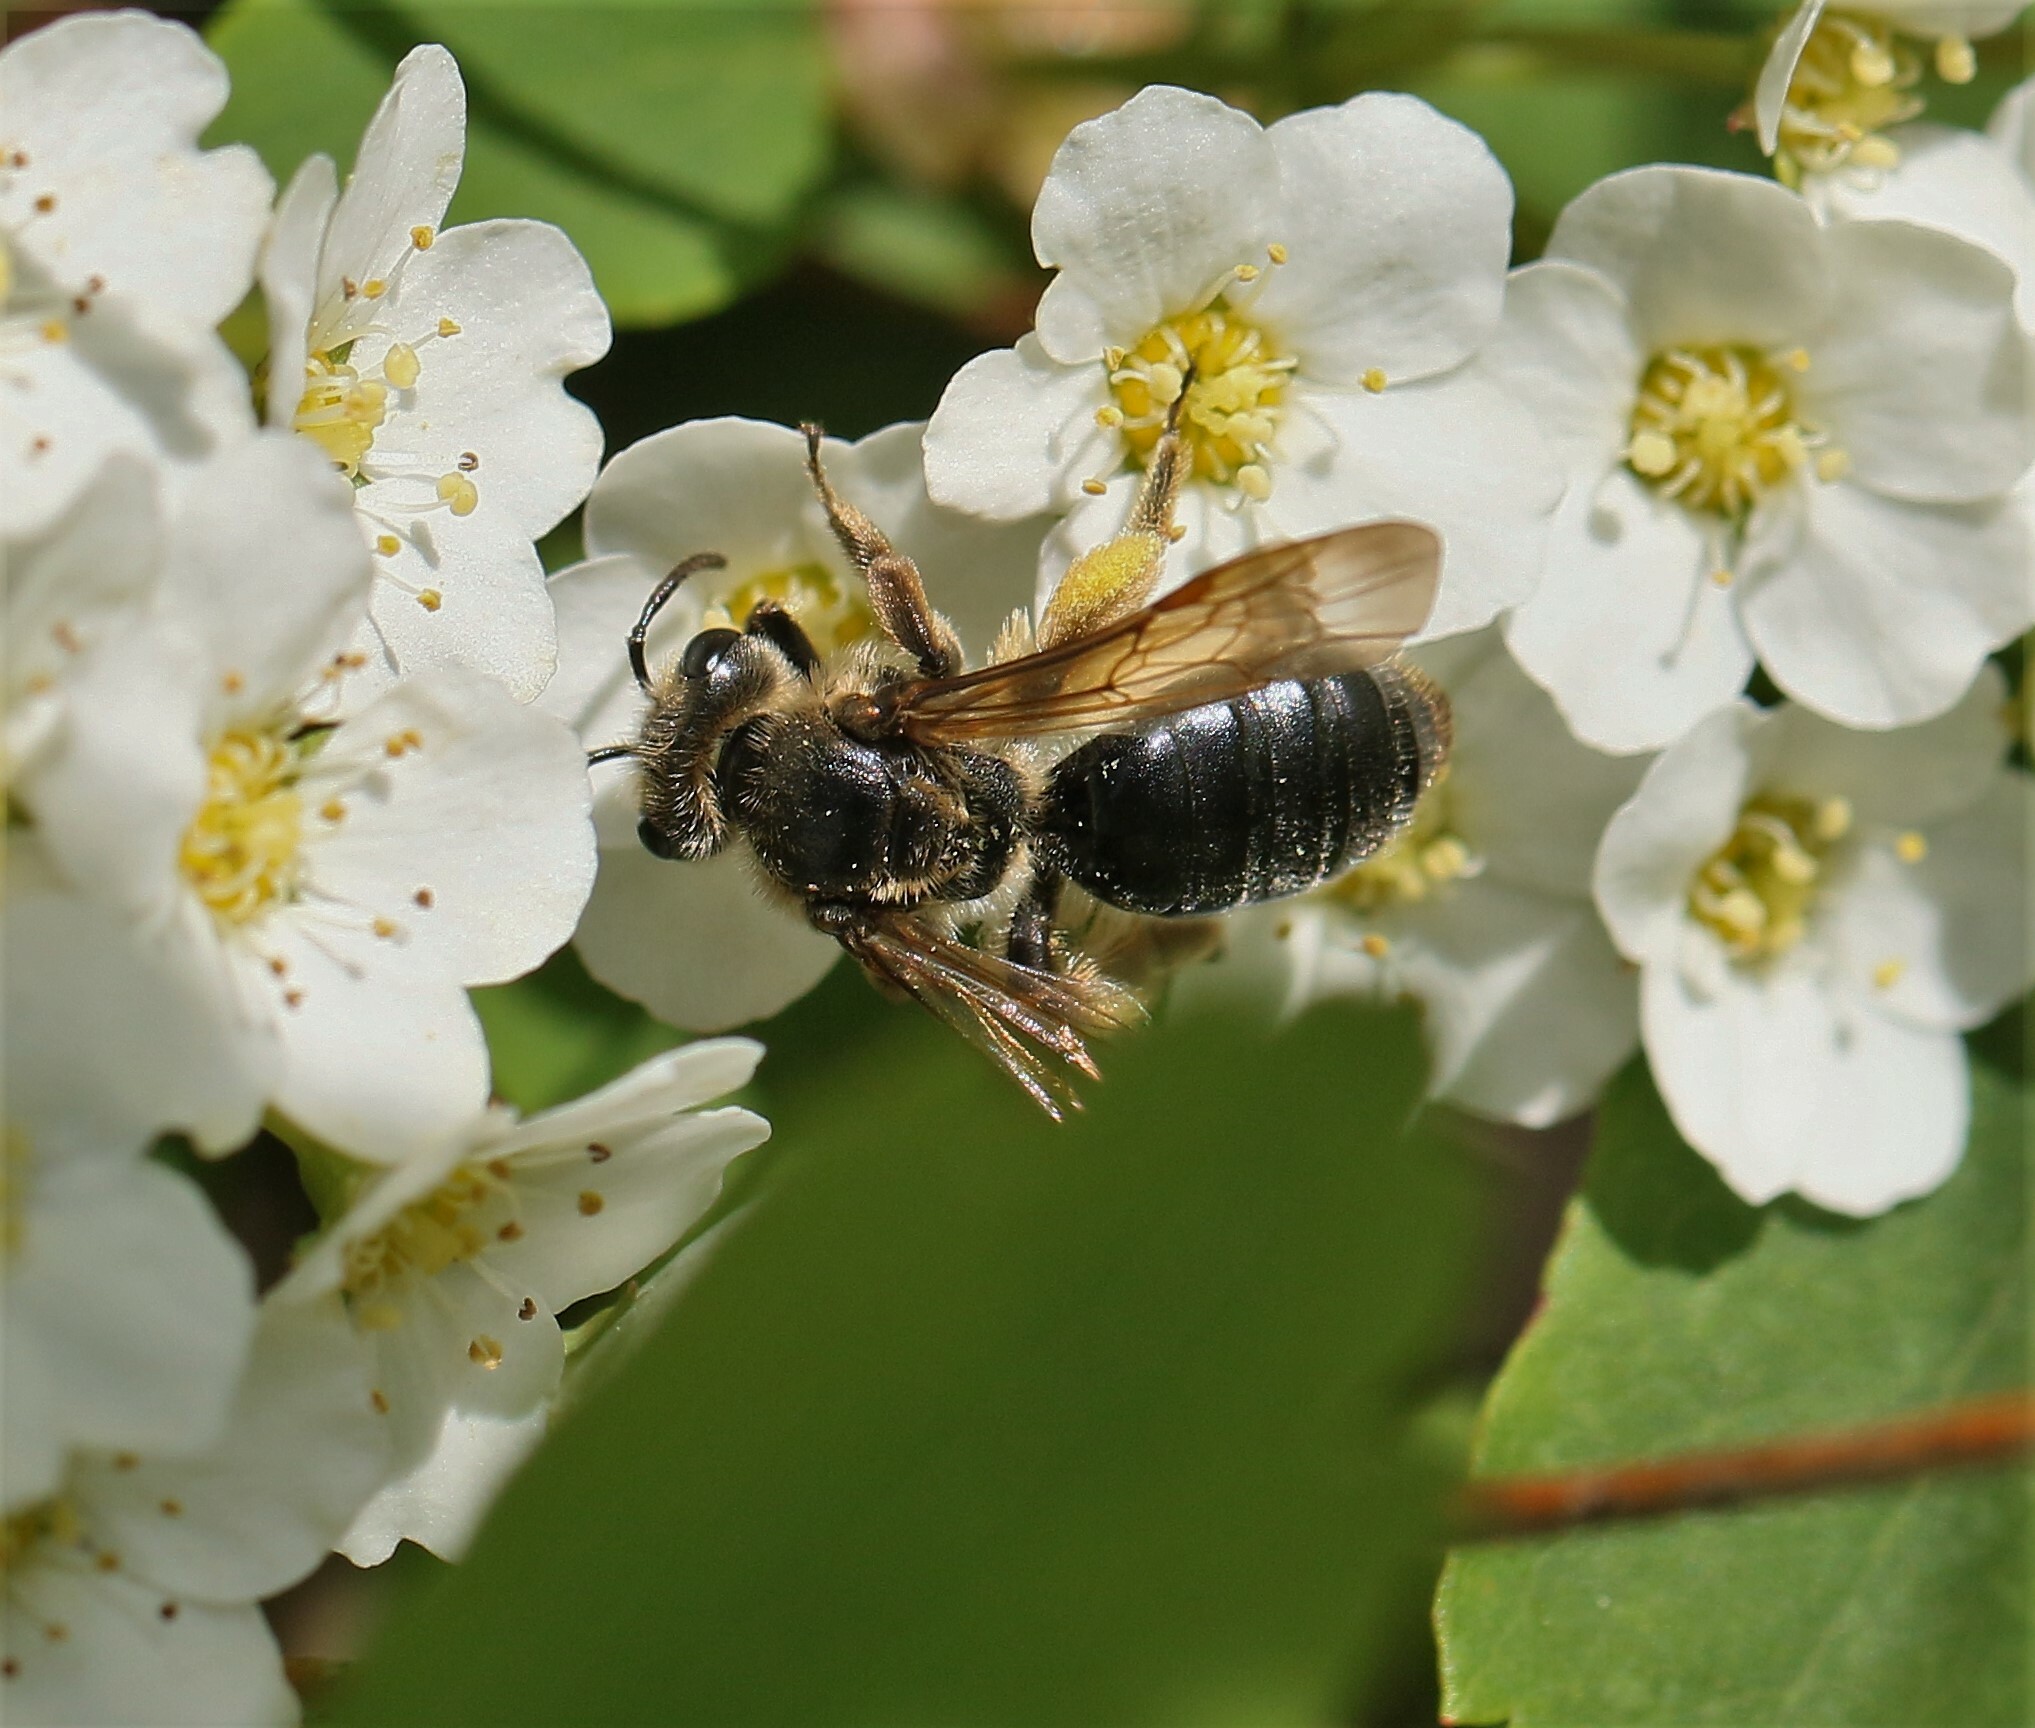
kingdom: Animalia
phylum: Arthropoda
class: Insecta
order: Hymenoptera
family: Andrenidae
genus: Andrena
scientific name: Andrena crataegi
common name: Hawthorn mining bee
